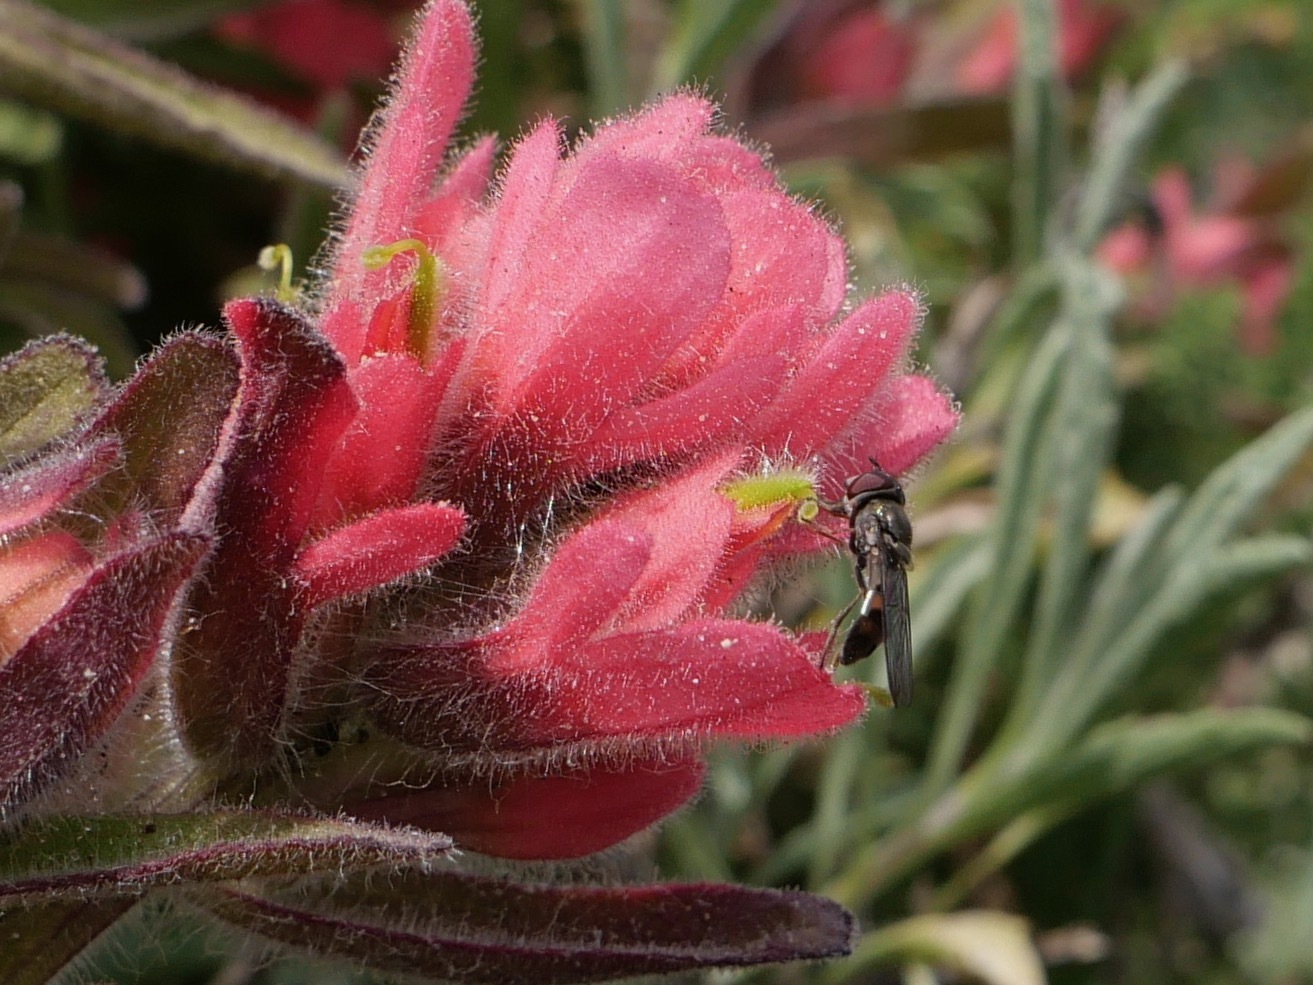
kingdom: Plantae
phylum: Tracheophyta
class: Magnoliopsida
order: Lamiales
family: Orobanchaceae
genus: Castilleja
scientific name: Castilleja affinis
